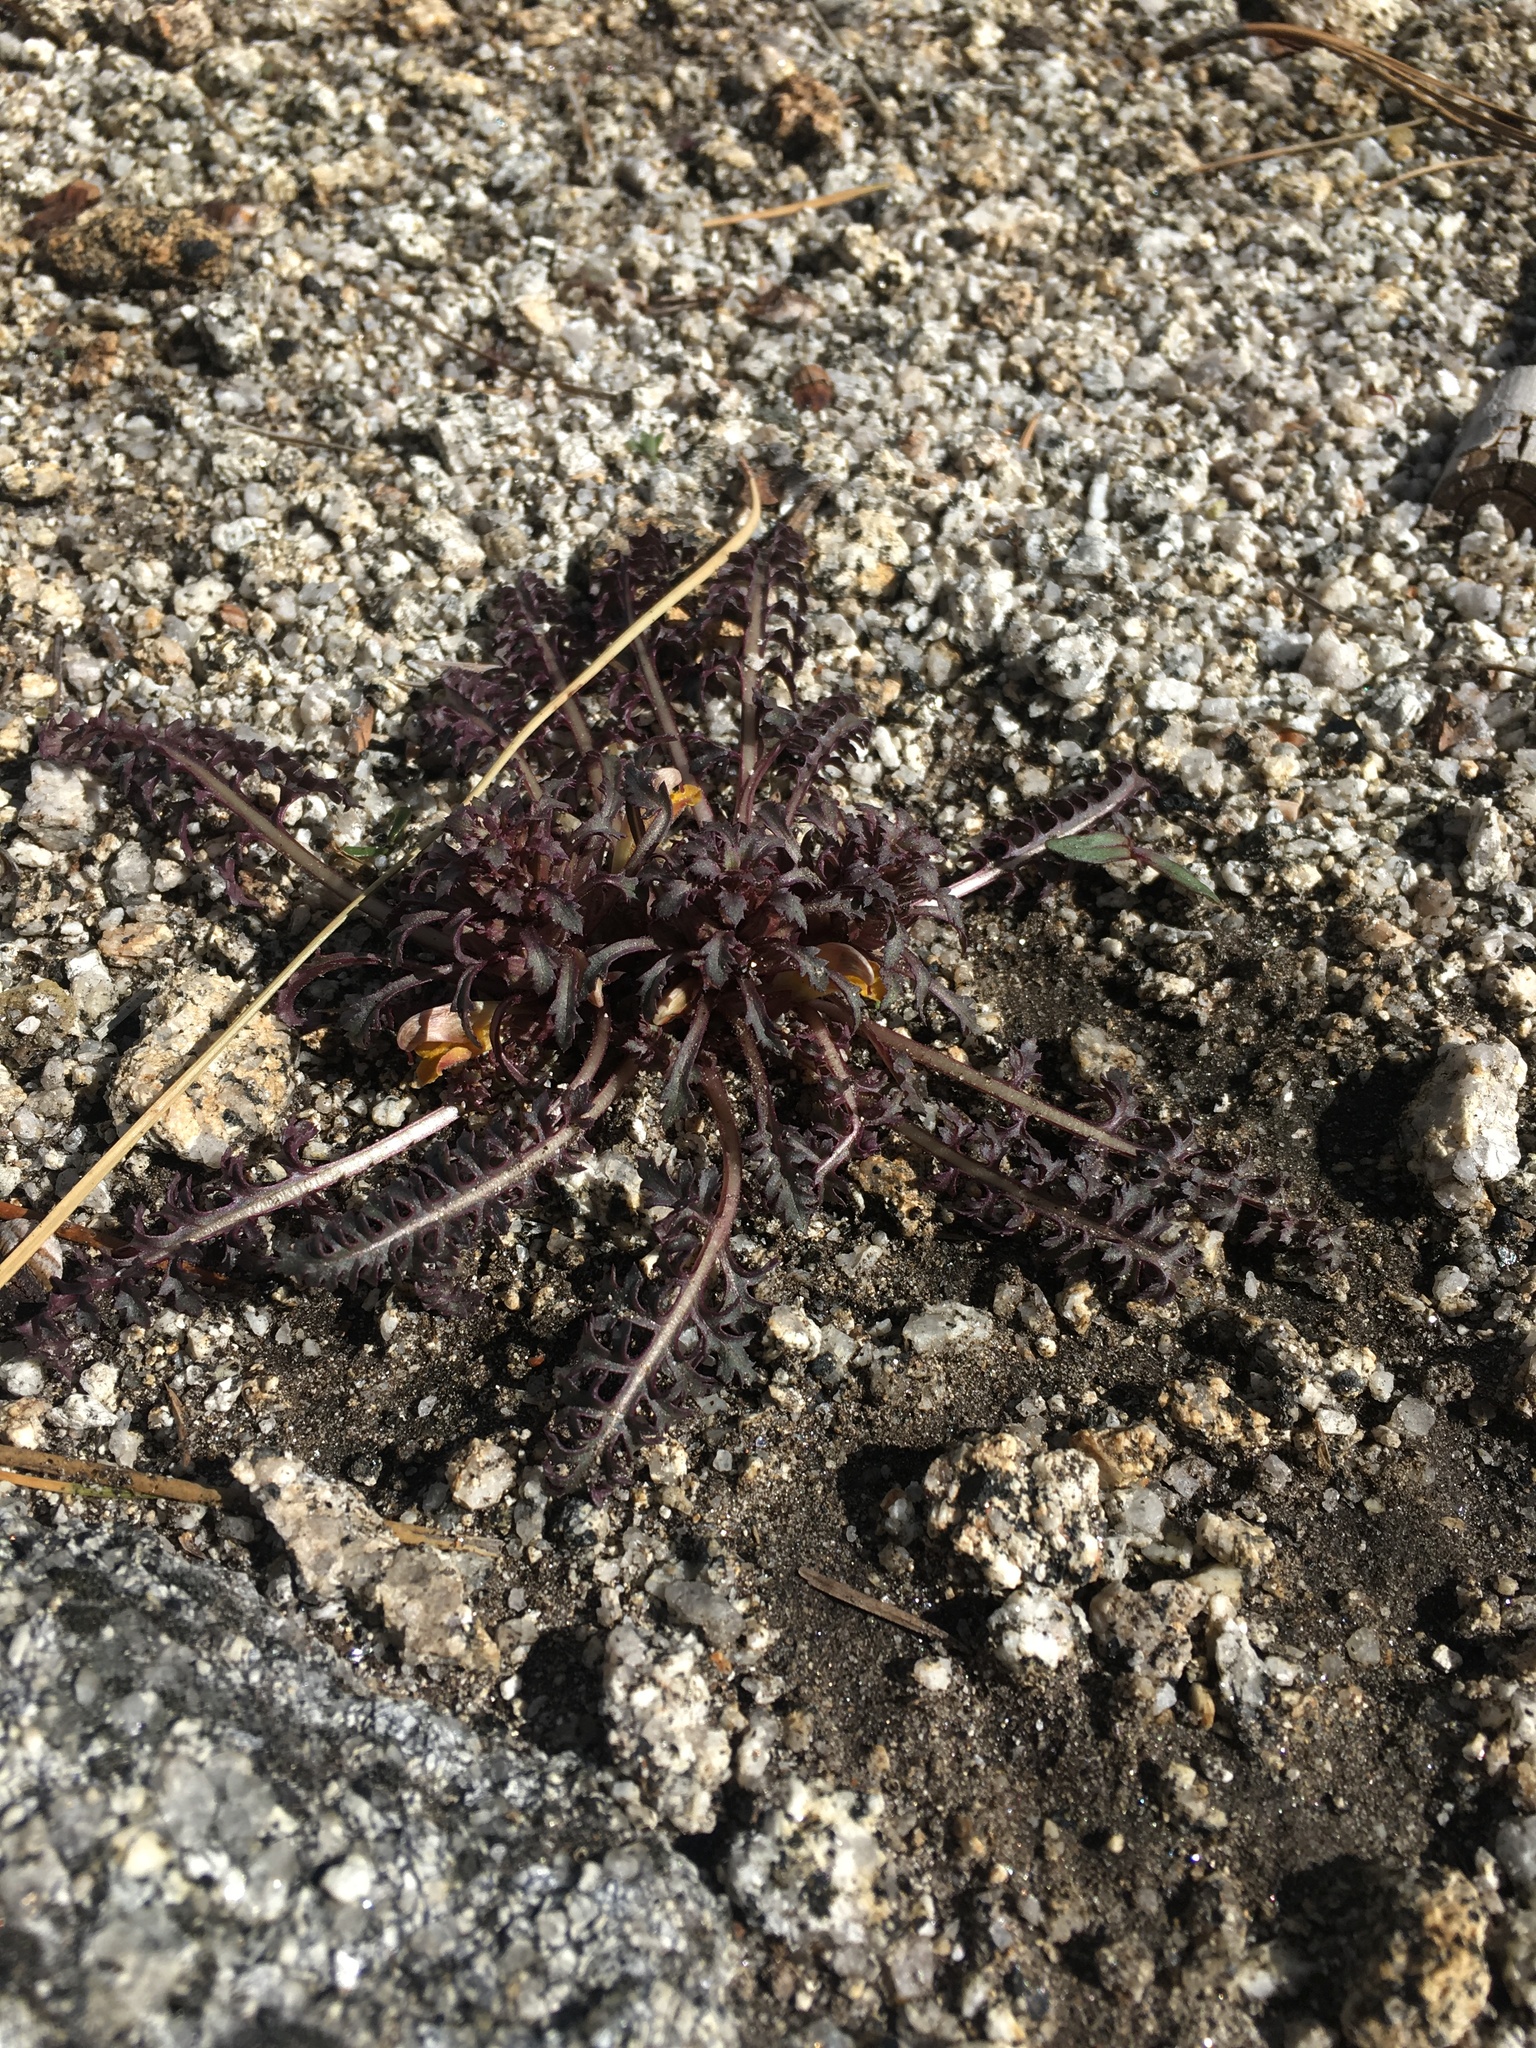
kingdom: Plantae
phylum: Tracheophyta
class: Magnoliopsida
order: Lamiales
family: Orobanchaceae
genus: Pedicularis
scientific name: Pedicularis semibarbata
